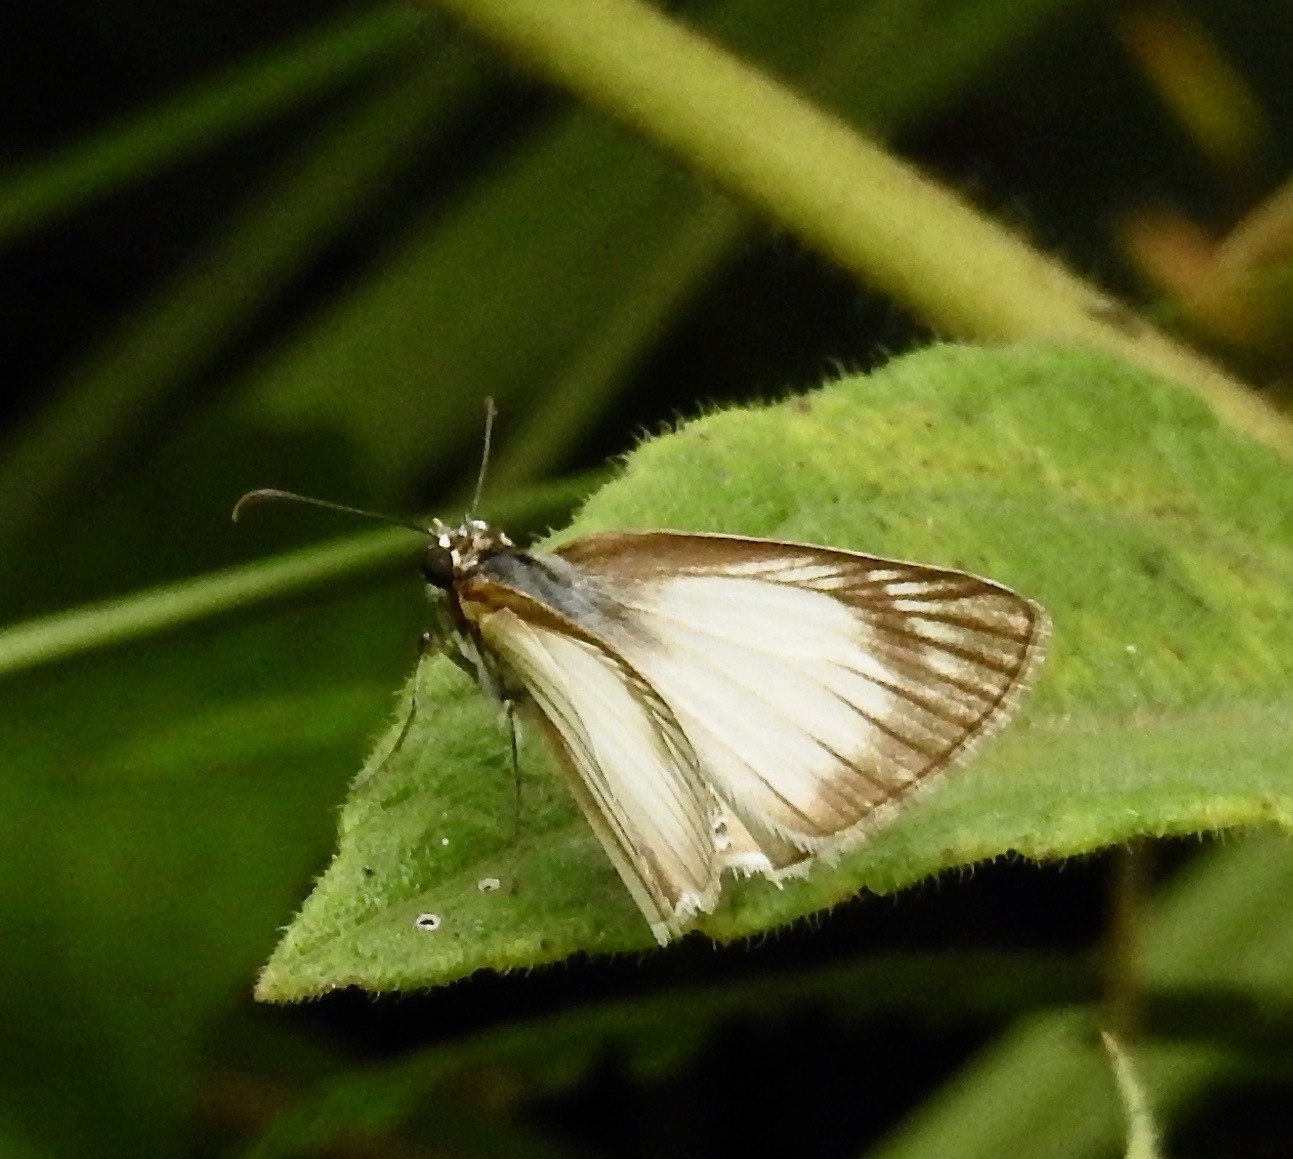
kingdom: Animalia
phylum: Arthropoda
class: Insecta
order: Lepidoptera
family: Hesperiidae
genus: Heliopetes
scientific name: Heliopetes arsalte
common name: Veined white-skipper
